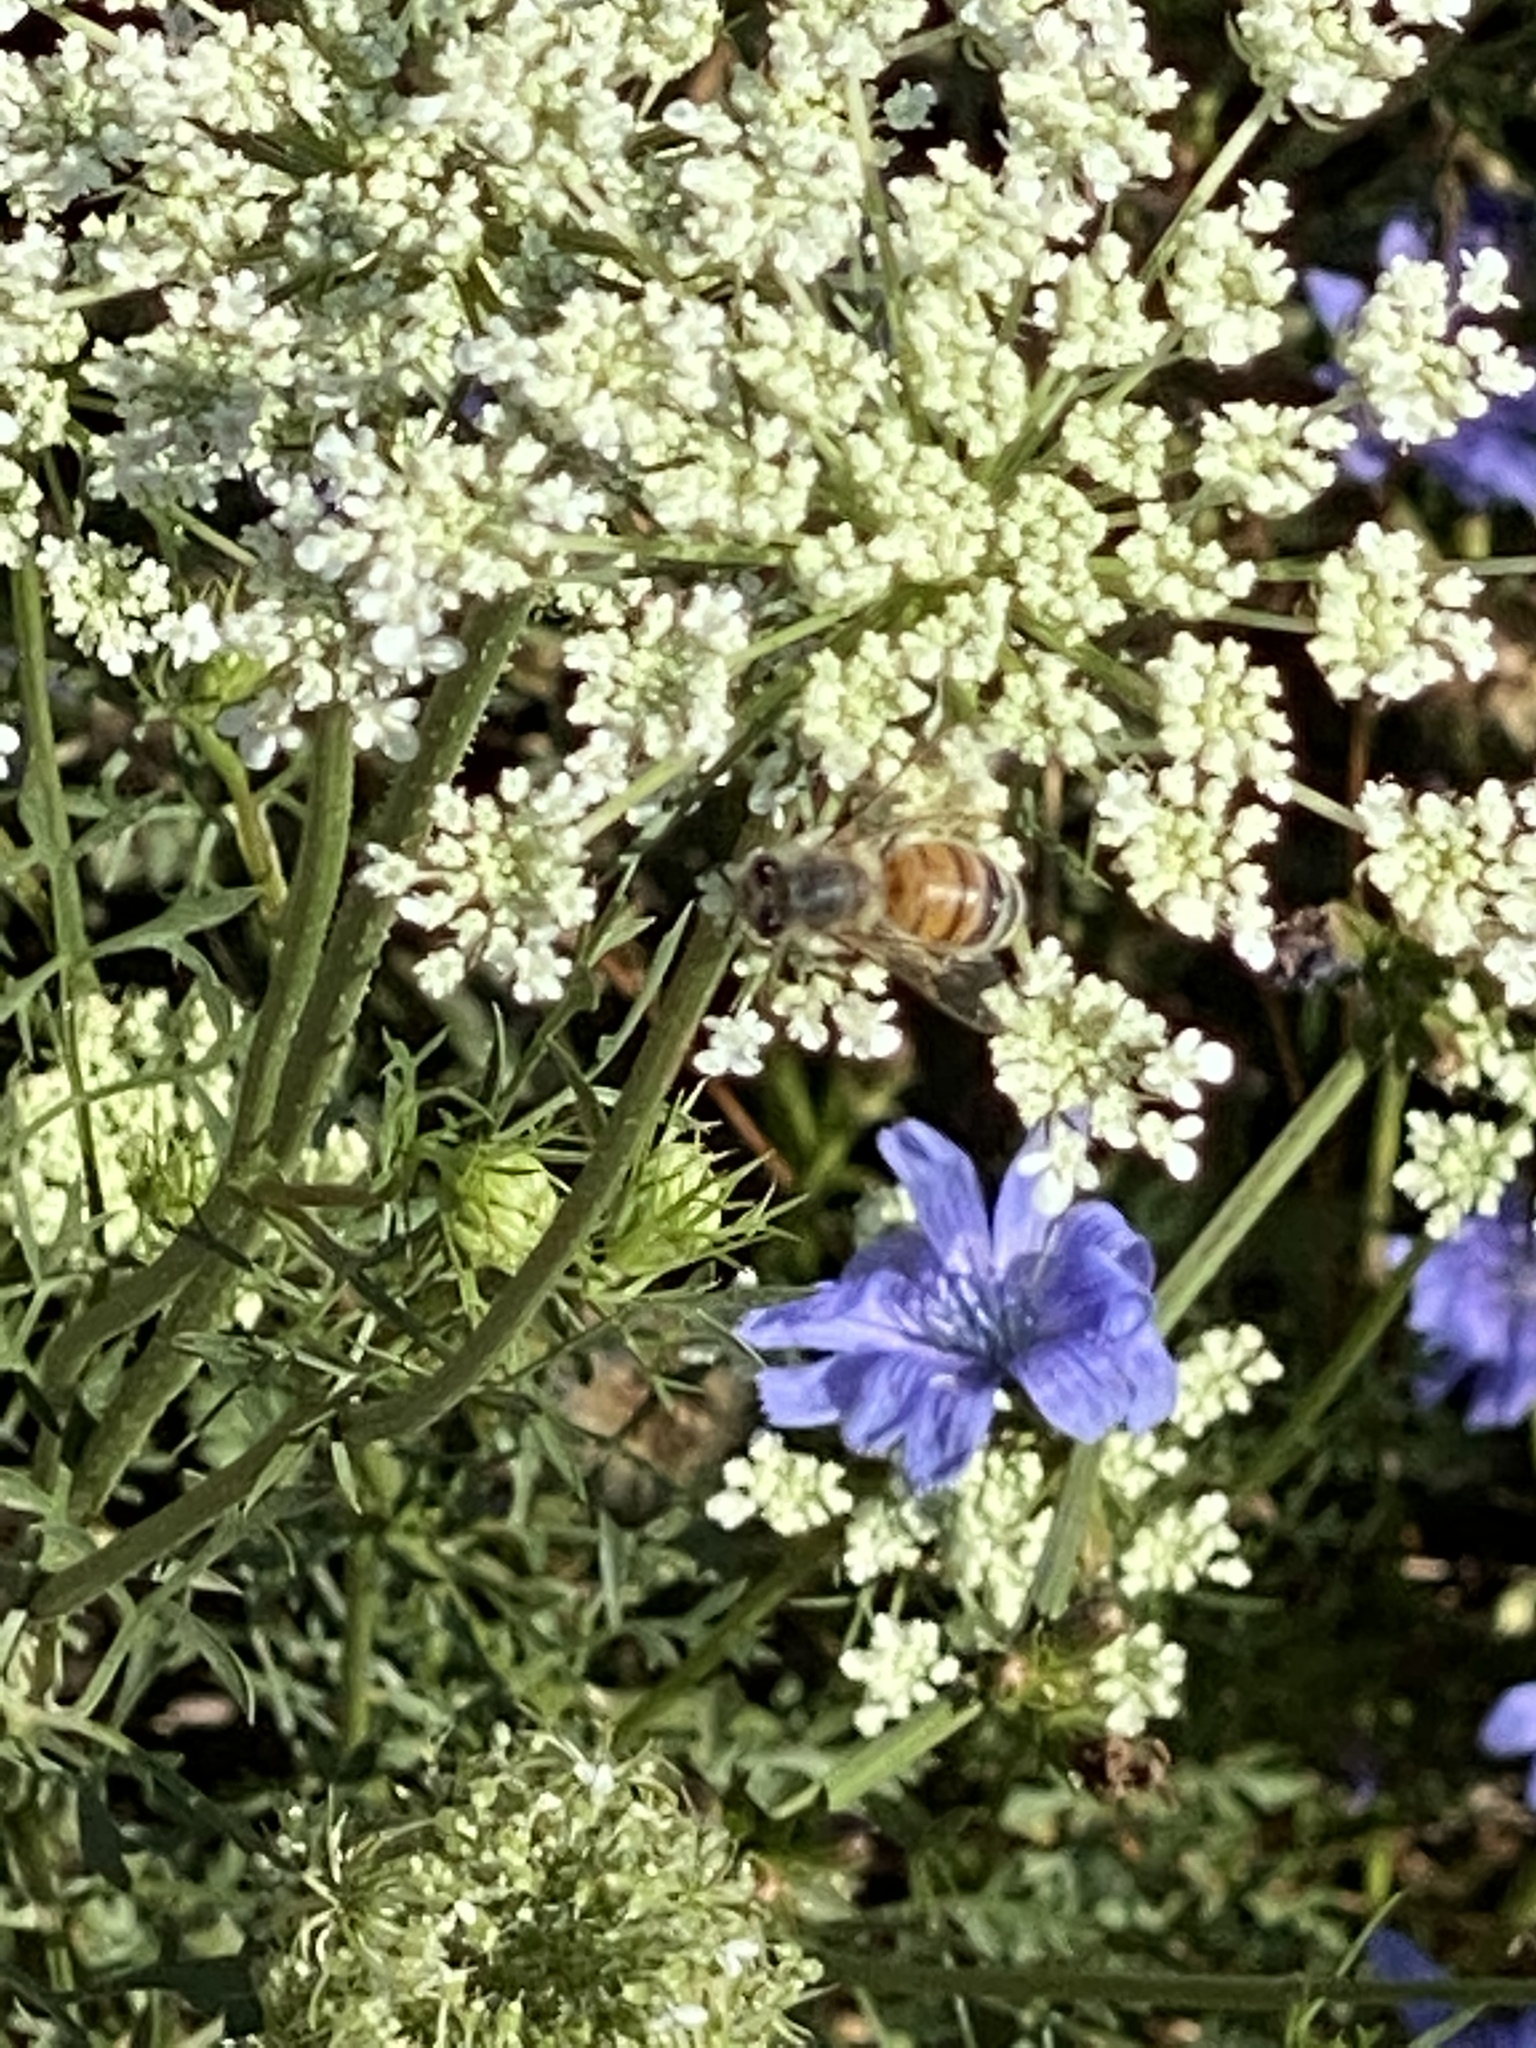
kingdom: Animalia
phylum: Arthropoda
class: Insecta
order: Hymenoptera
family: Apidae
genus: Apis
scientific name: Apis mellifera
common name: Honey bee
